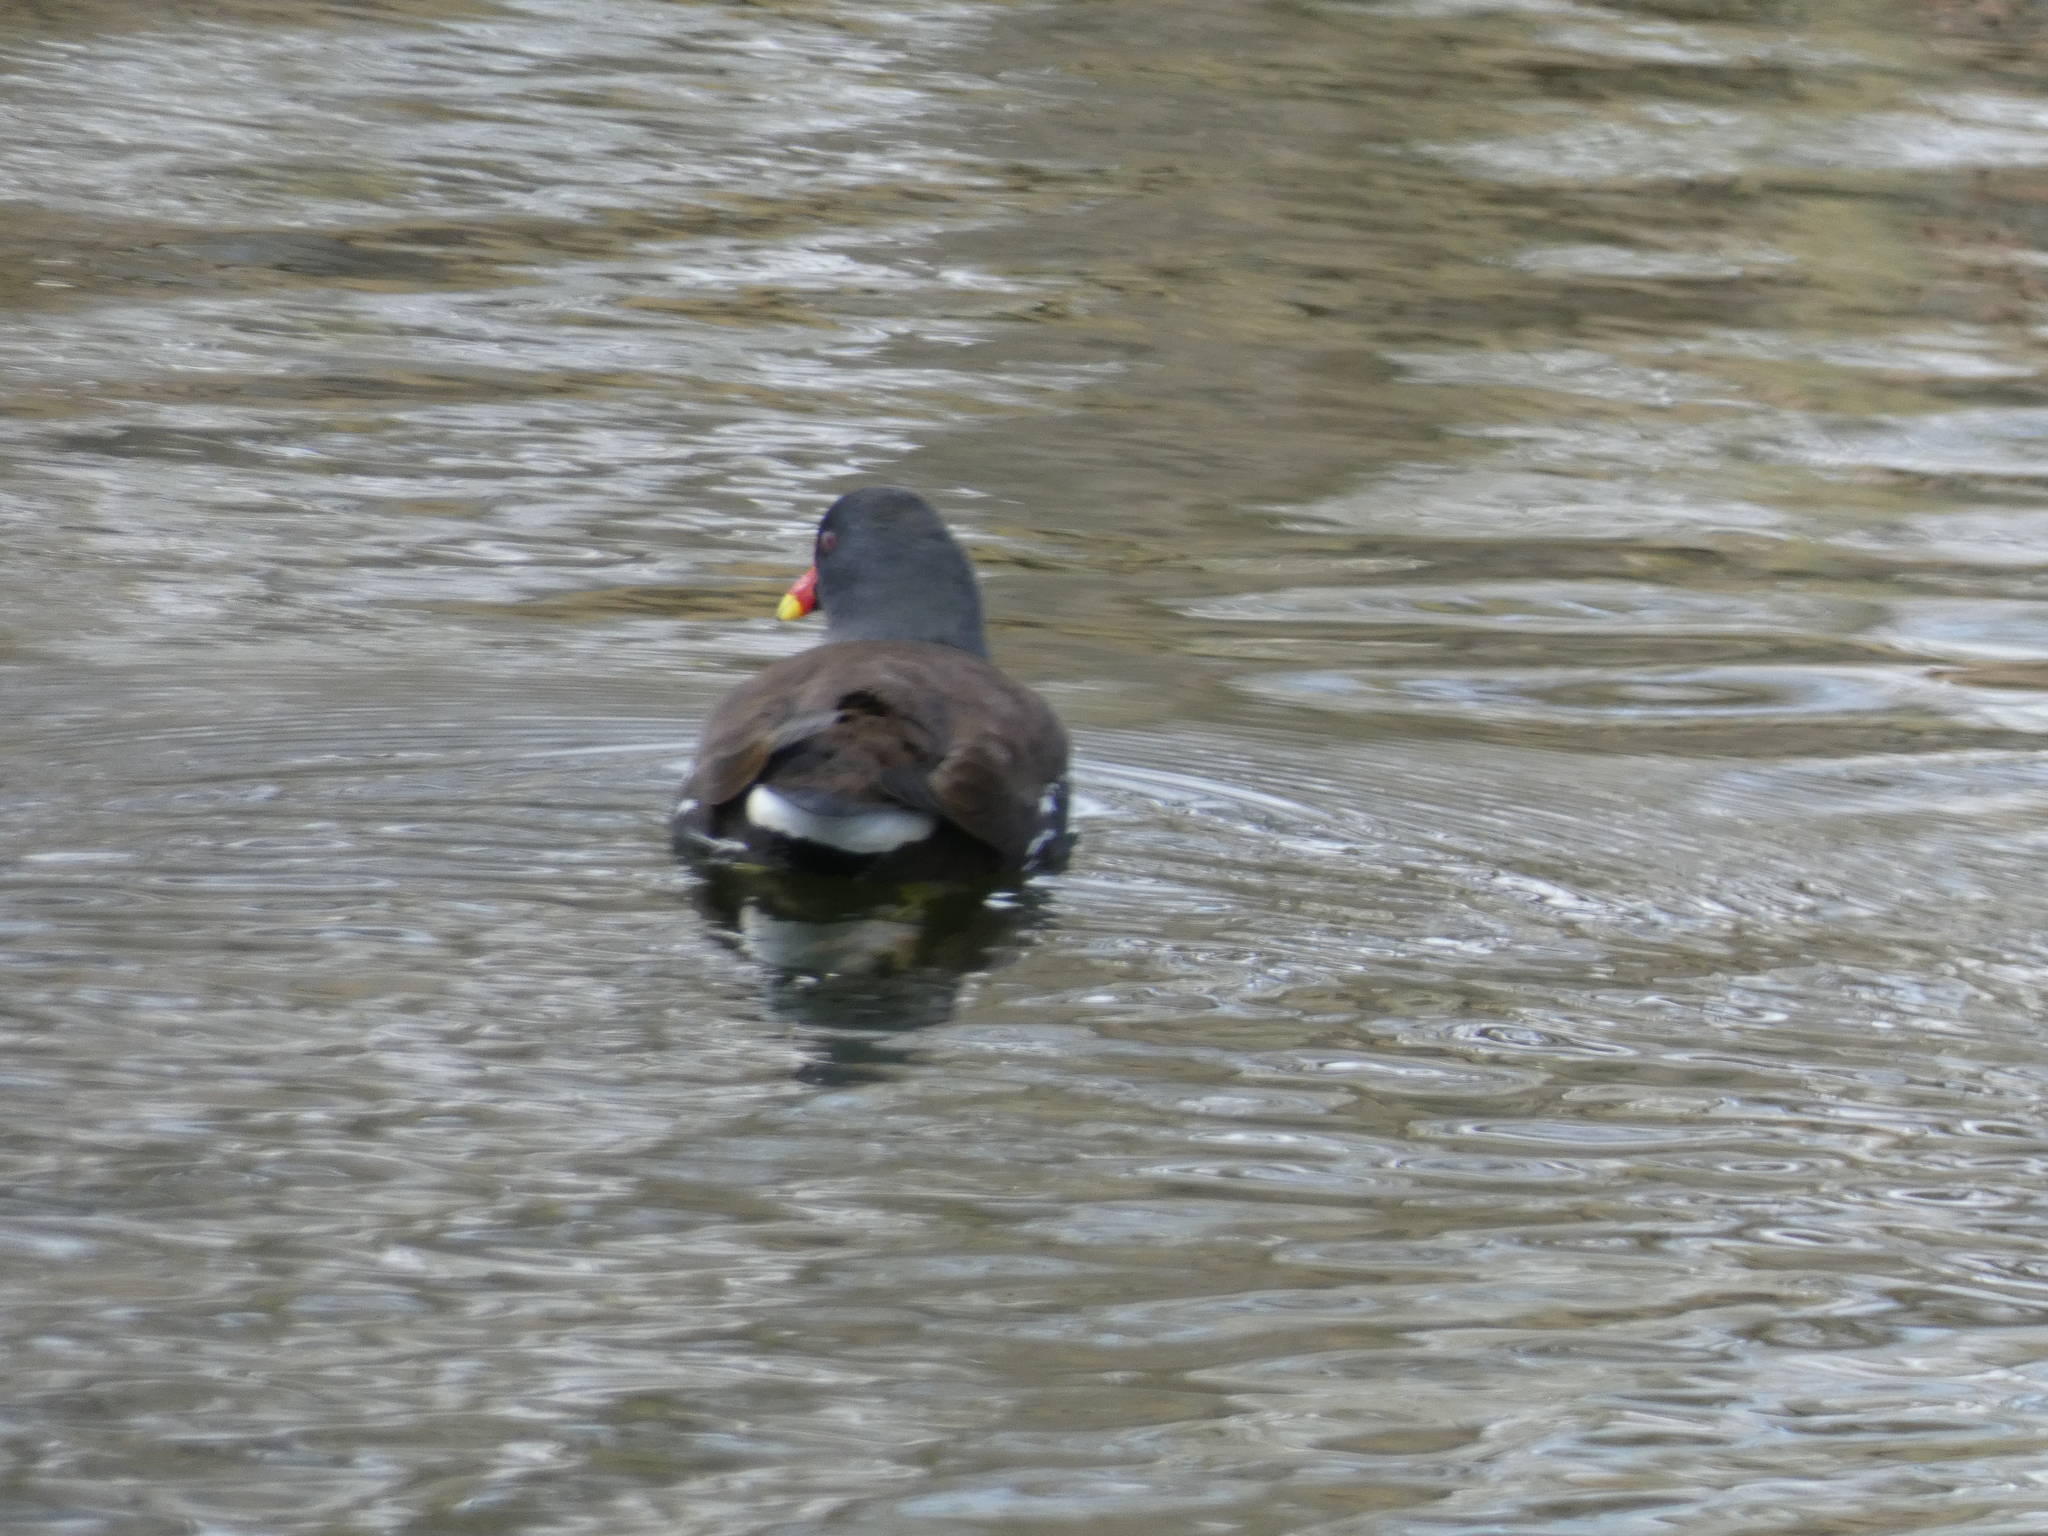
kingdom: Animalia
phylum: Chordata
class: Aves
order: Gruiformes
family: Rallidae
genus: Gallinula
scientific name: Gallinula chloropus
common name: Common moorhen
